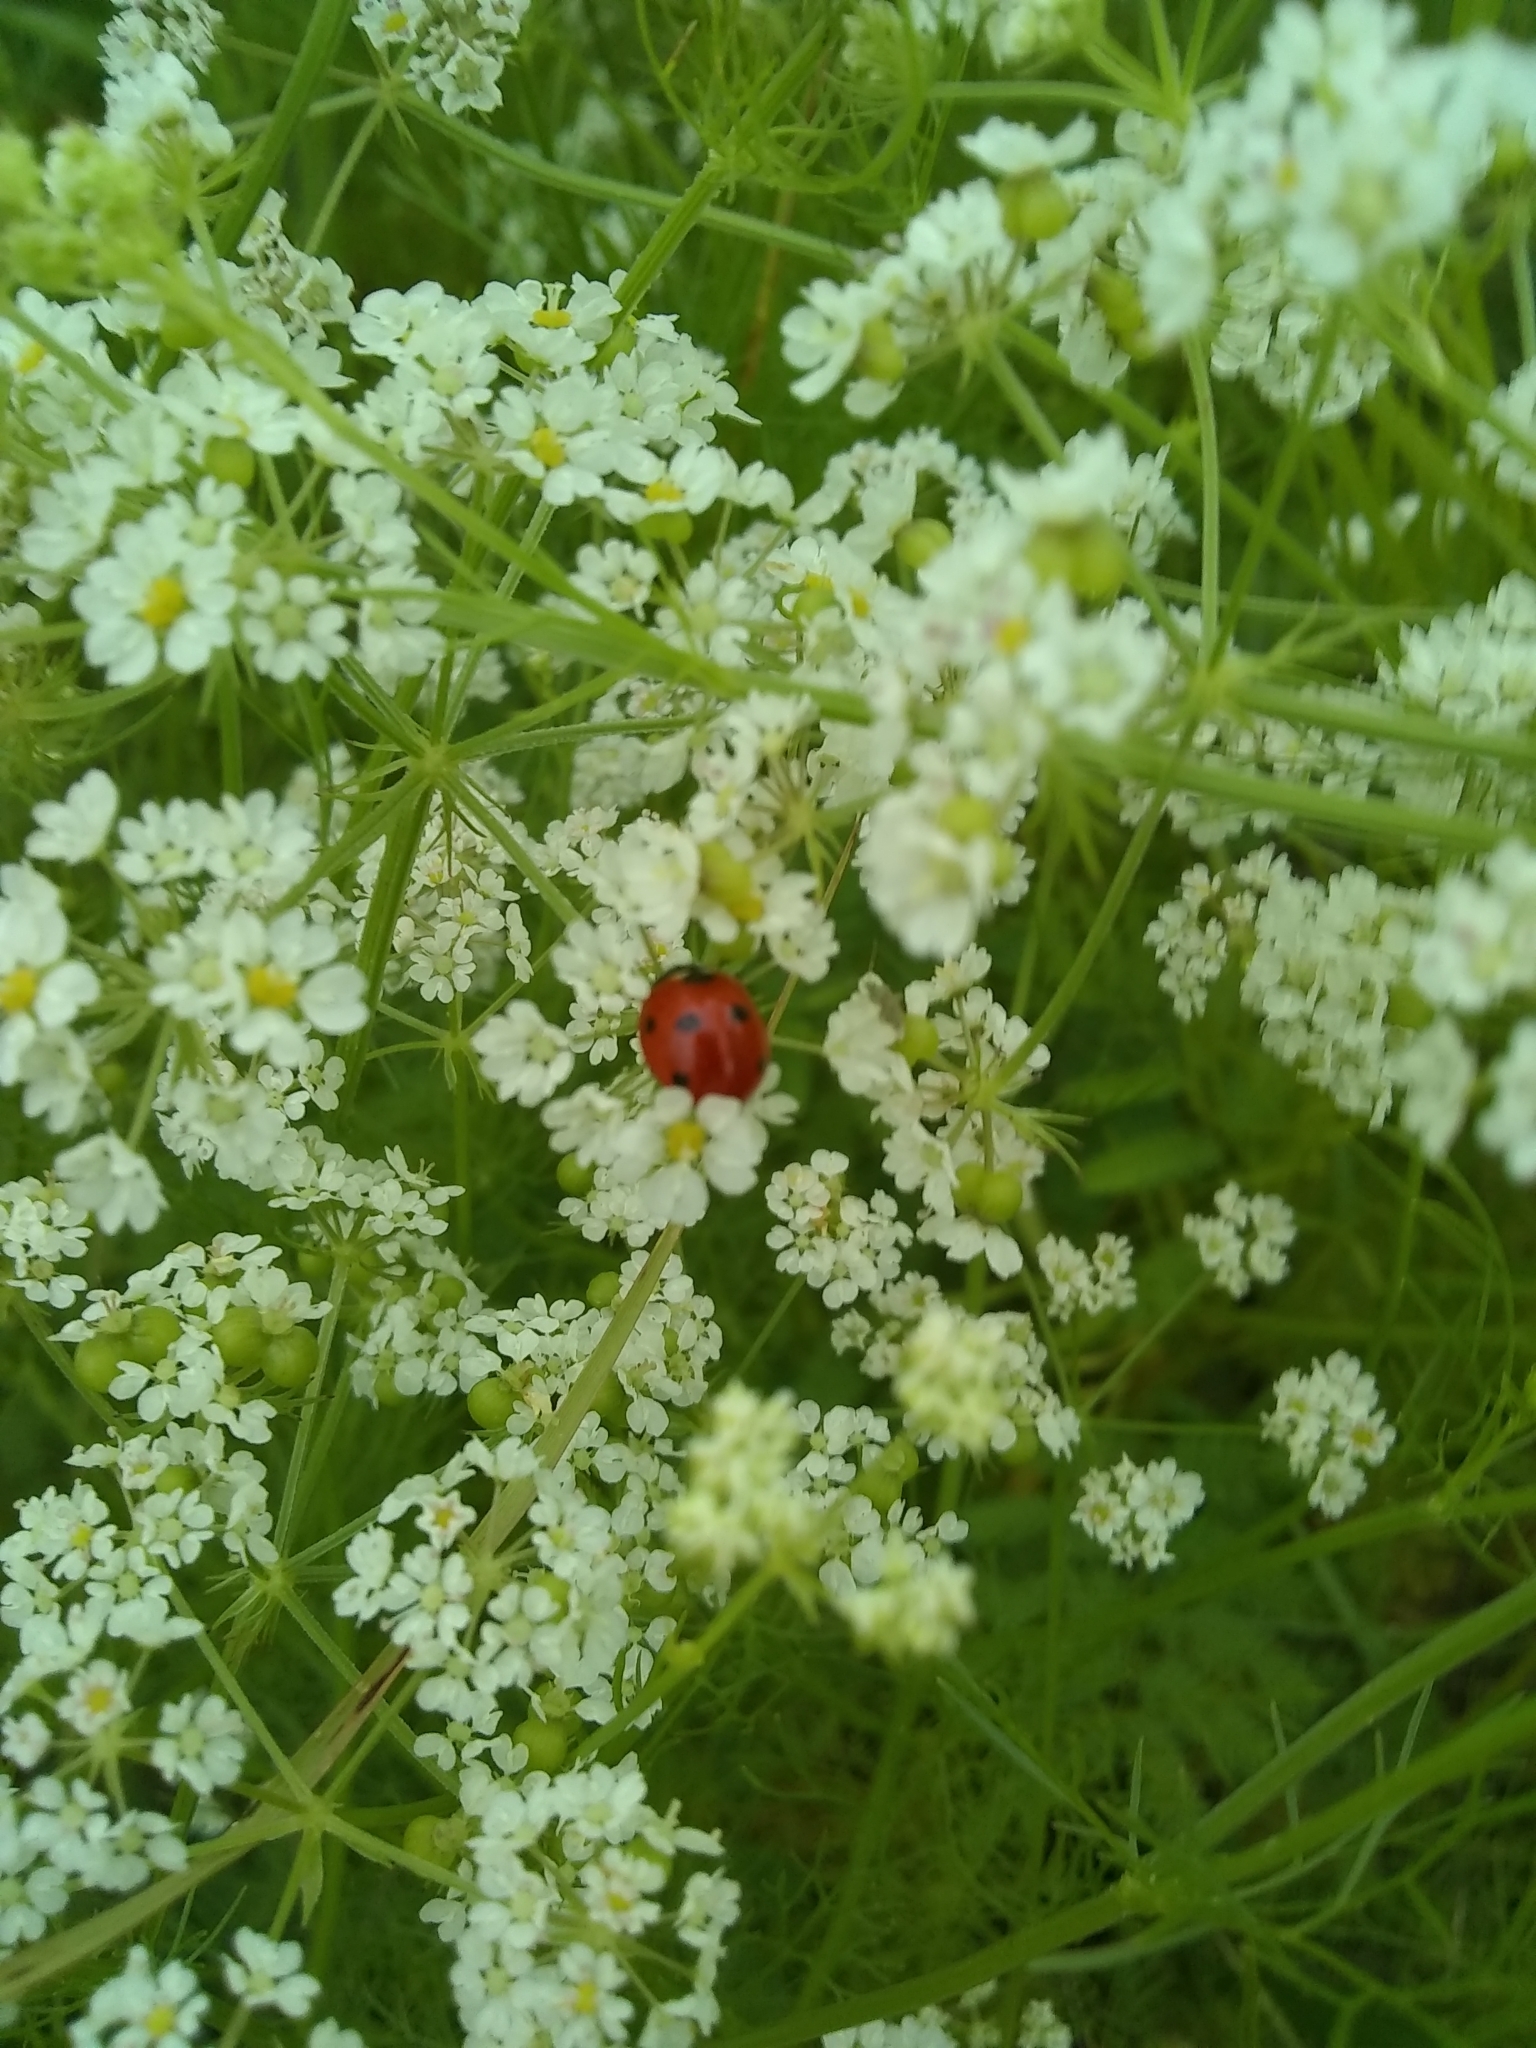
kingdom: Animalia
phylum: Arthropoda
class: Insecta
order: Coleoptera
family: Coccinellidae
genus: Coccinella
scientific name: Coccinella septempunctata
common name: Sevenspotted lady beetle
